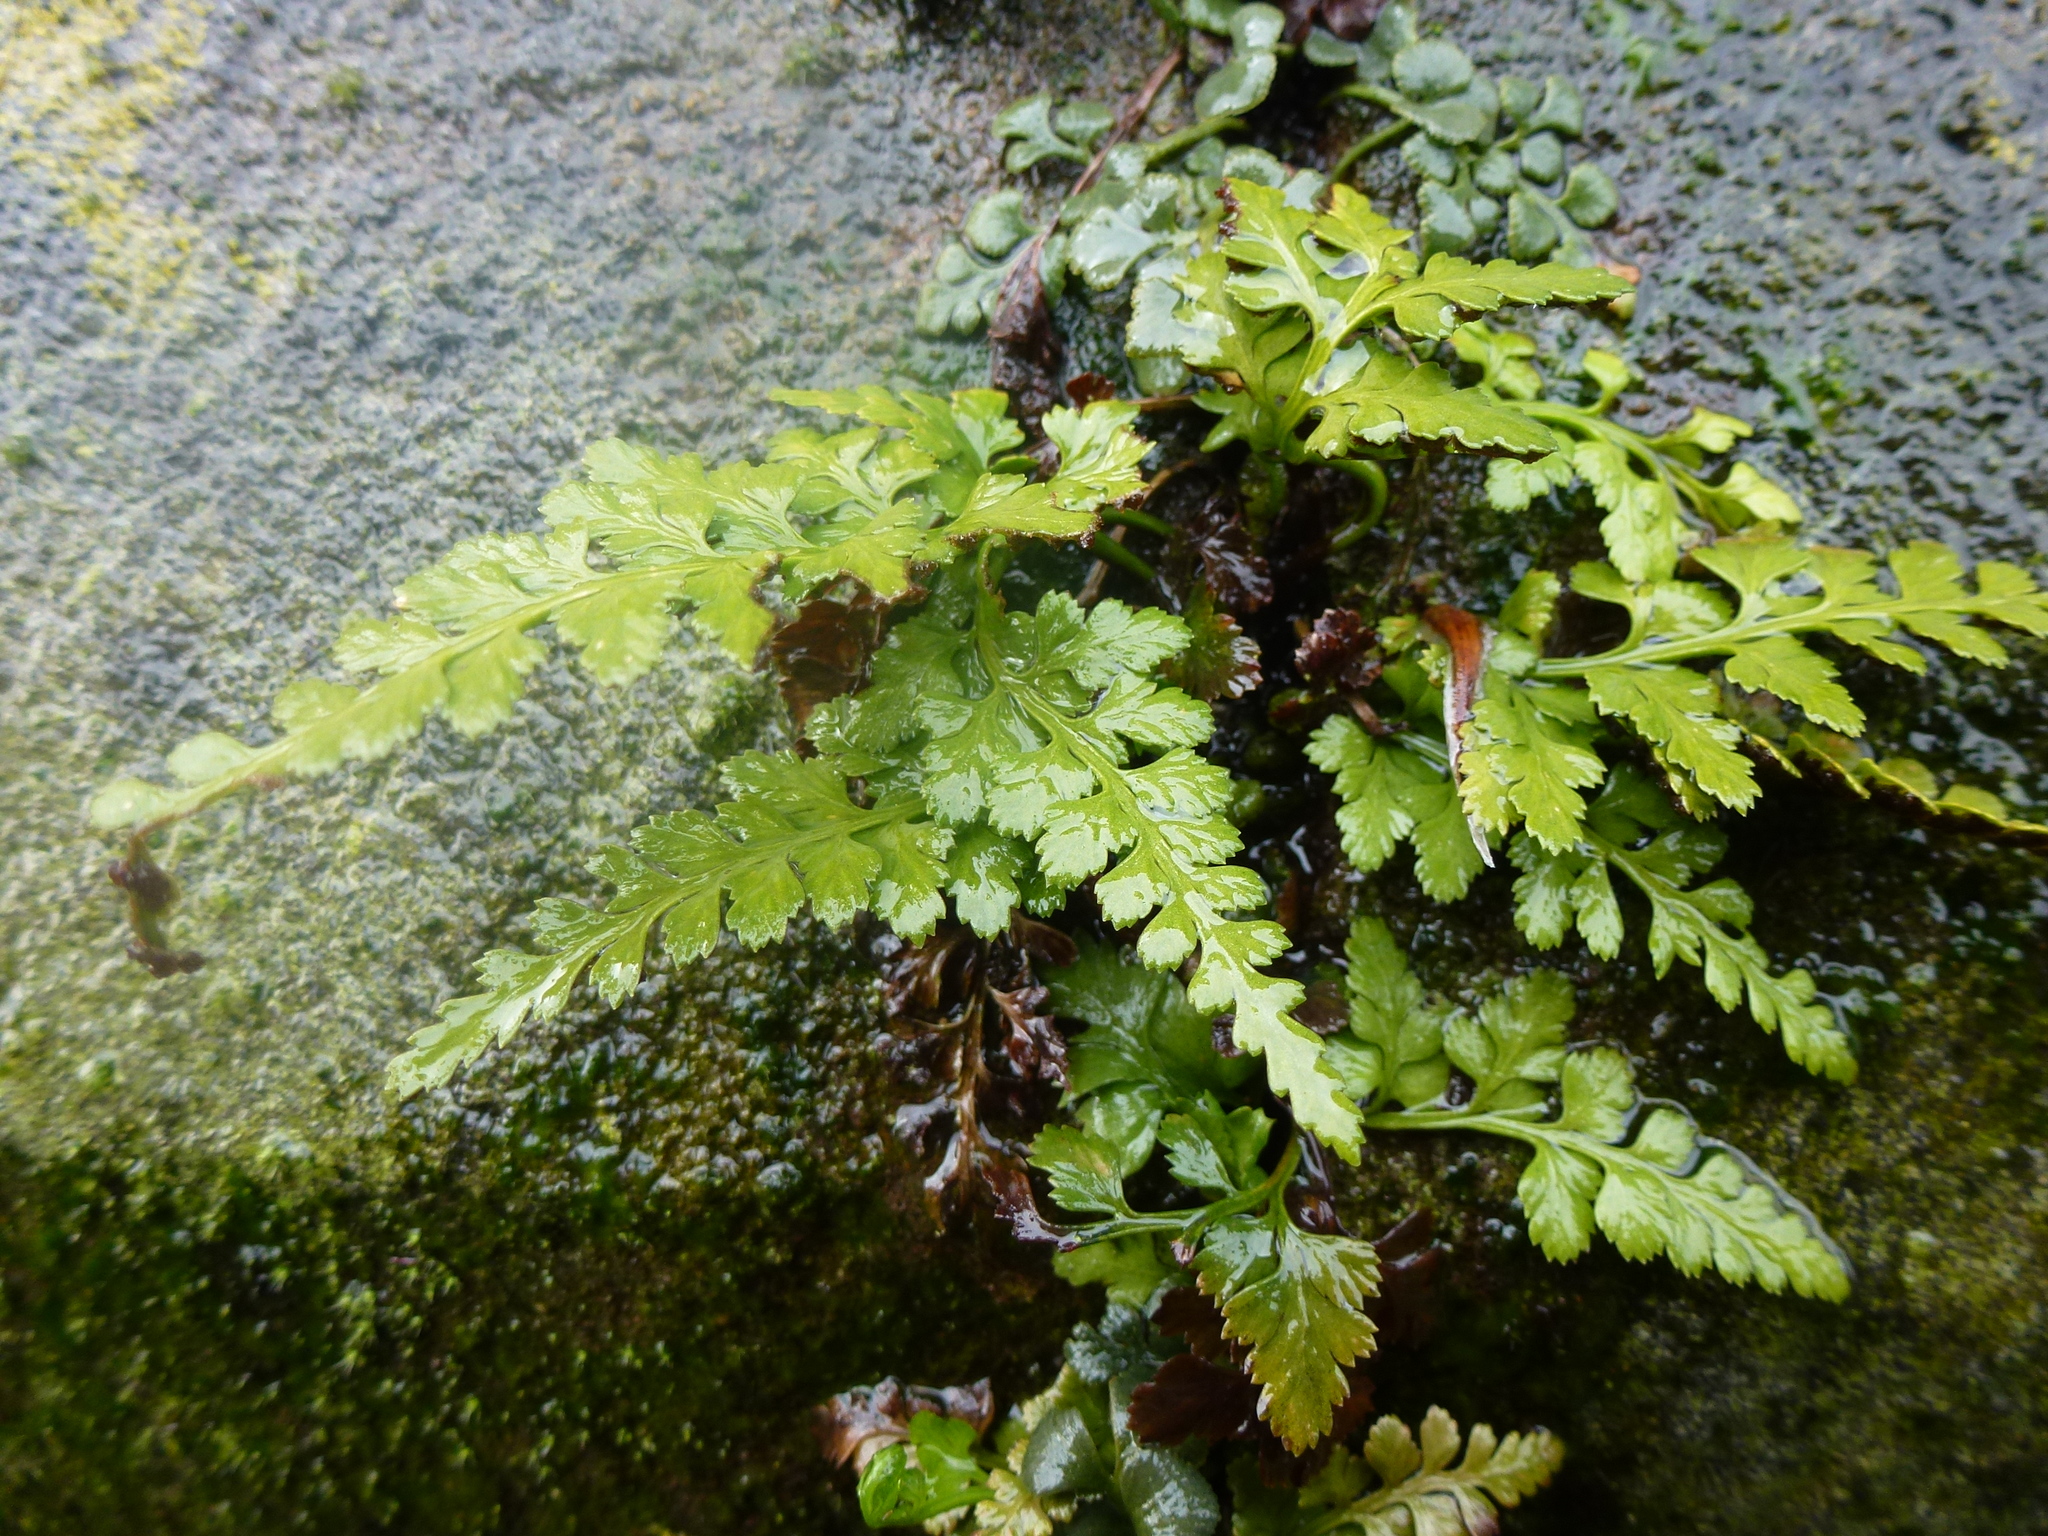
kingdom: Plantae
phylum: Tracheophyta
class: Polypodiopsida
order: Polypodiales
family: Aspleniaceae
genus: Asplenium
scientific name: Asplenium adiantum-nigrum
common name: Black spleenwort
